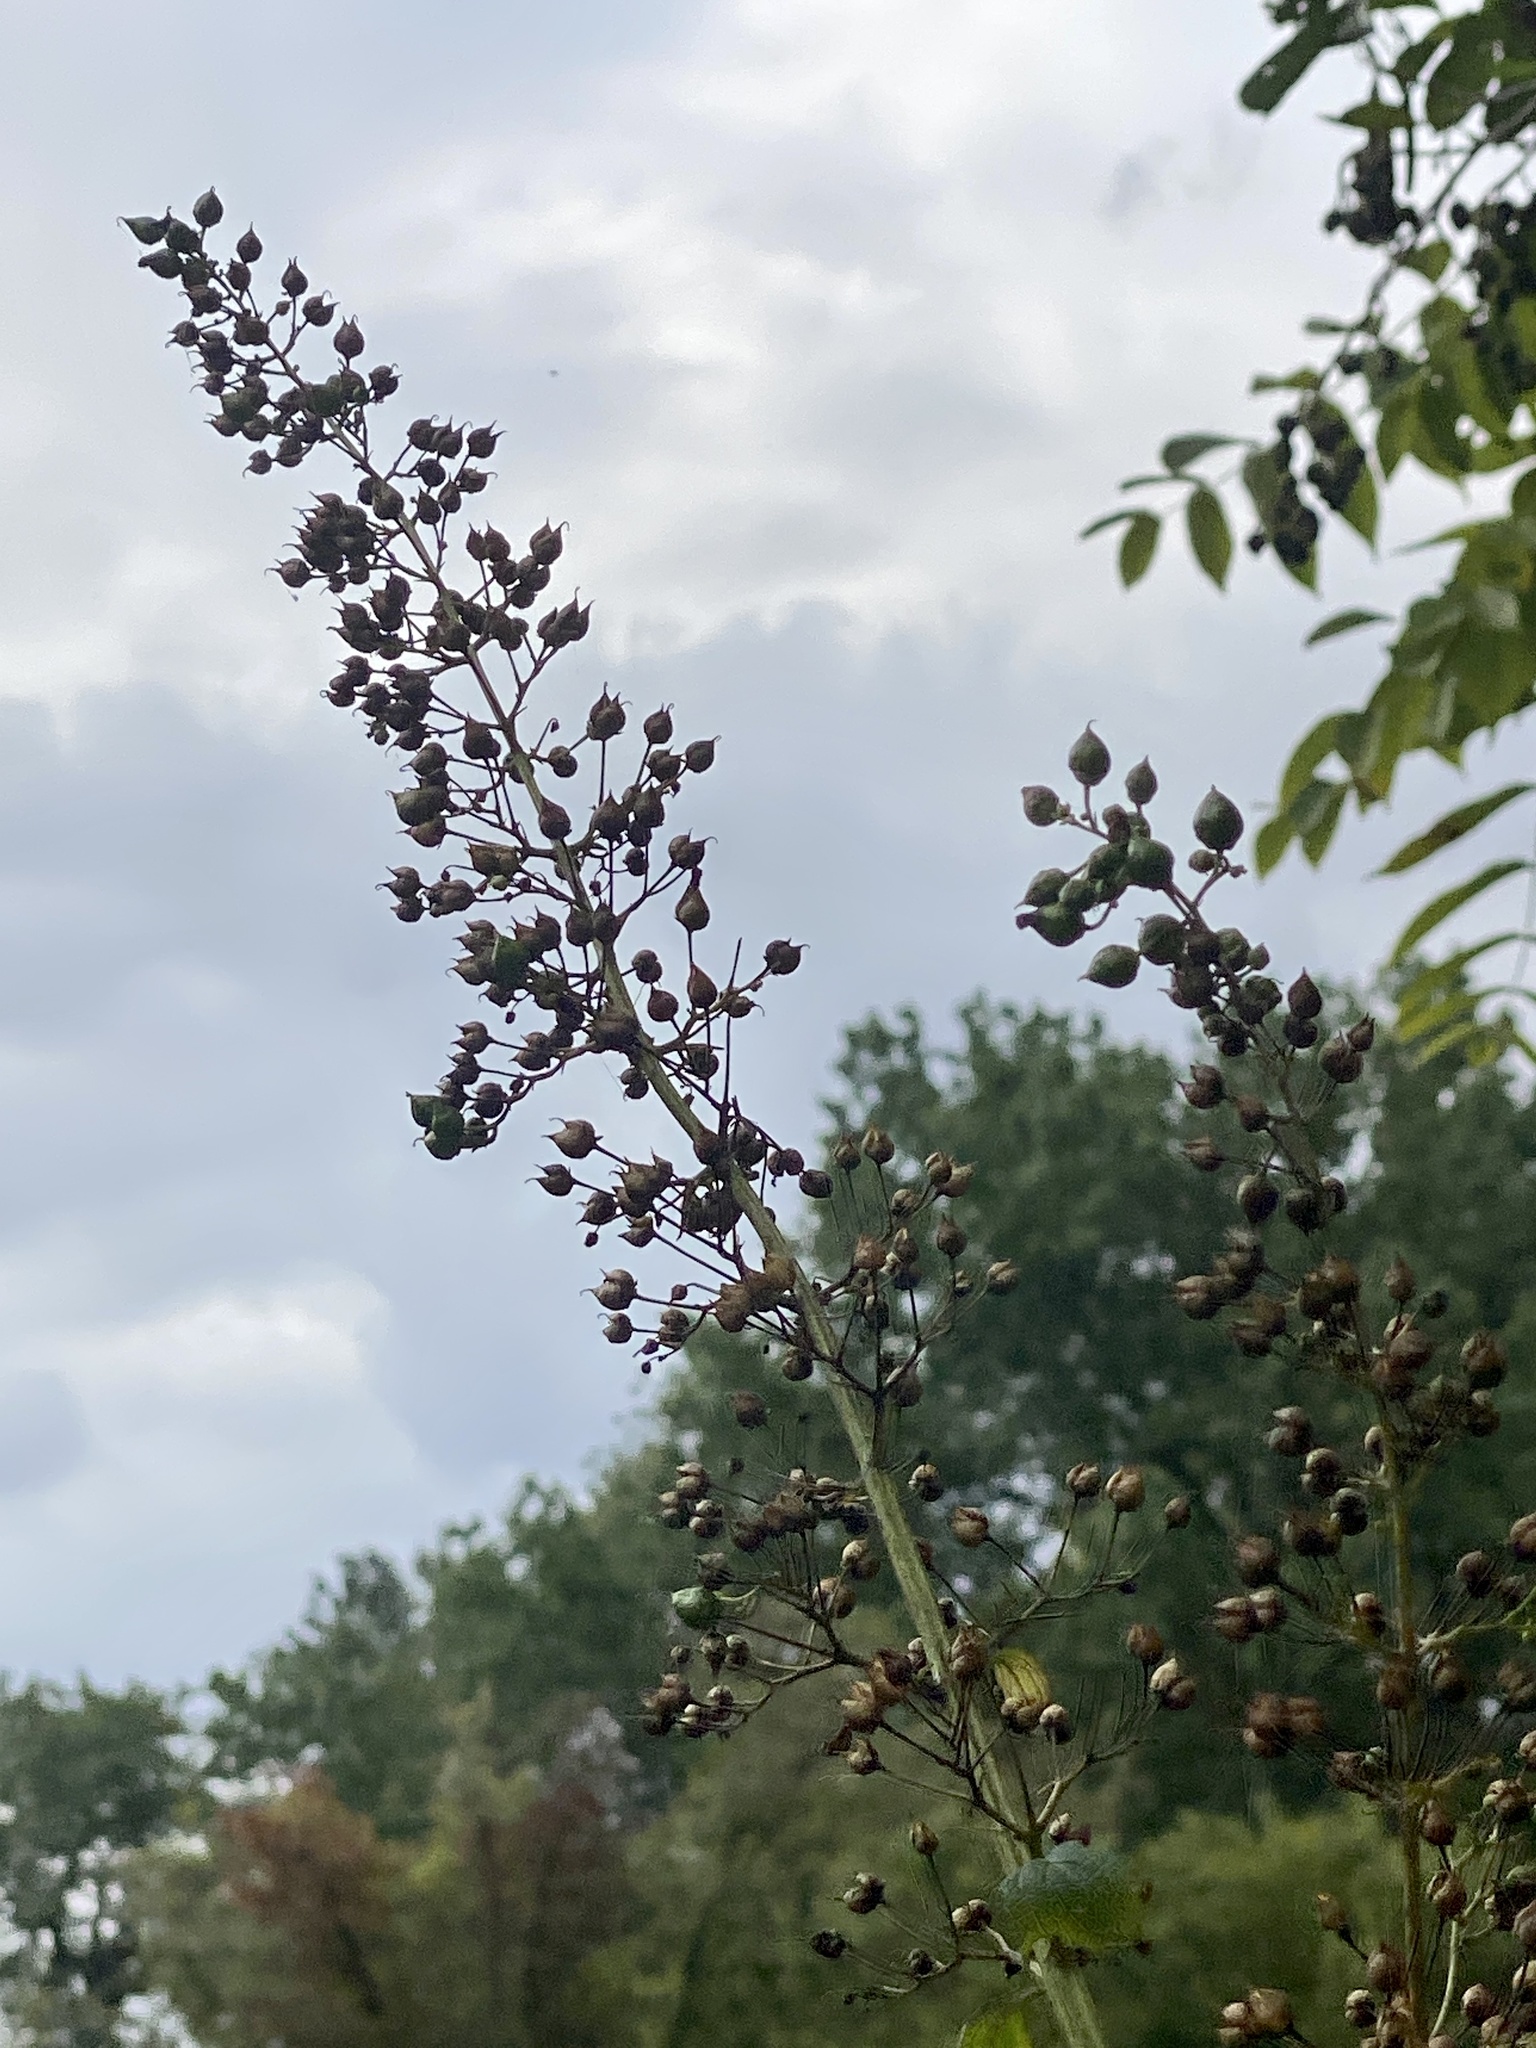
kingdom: Plantae
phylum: Tracheophyta
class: Magnoliopsida
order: Lamiales
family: Scrophulariaceae
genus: Scrophularia
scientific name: Scrophularia marilandica
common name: Eastern figwort
